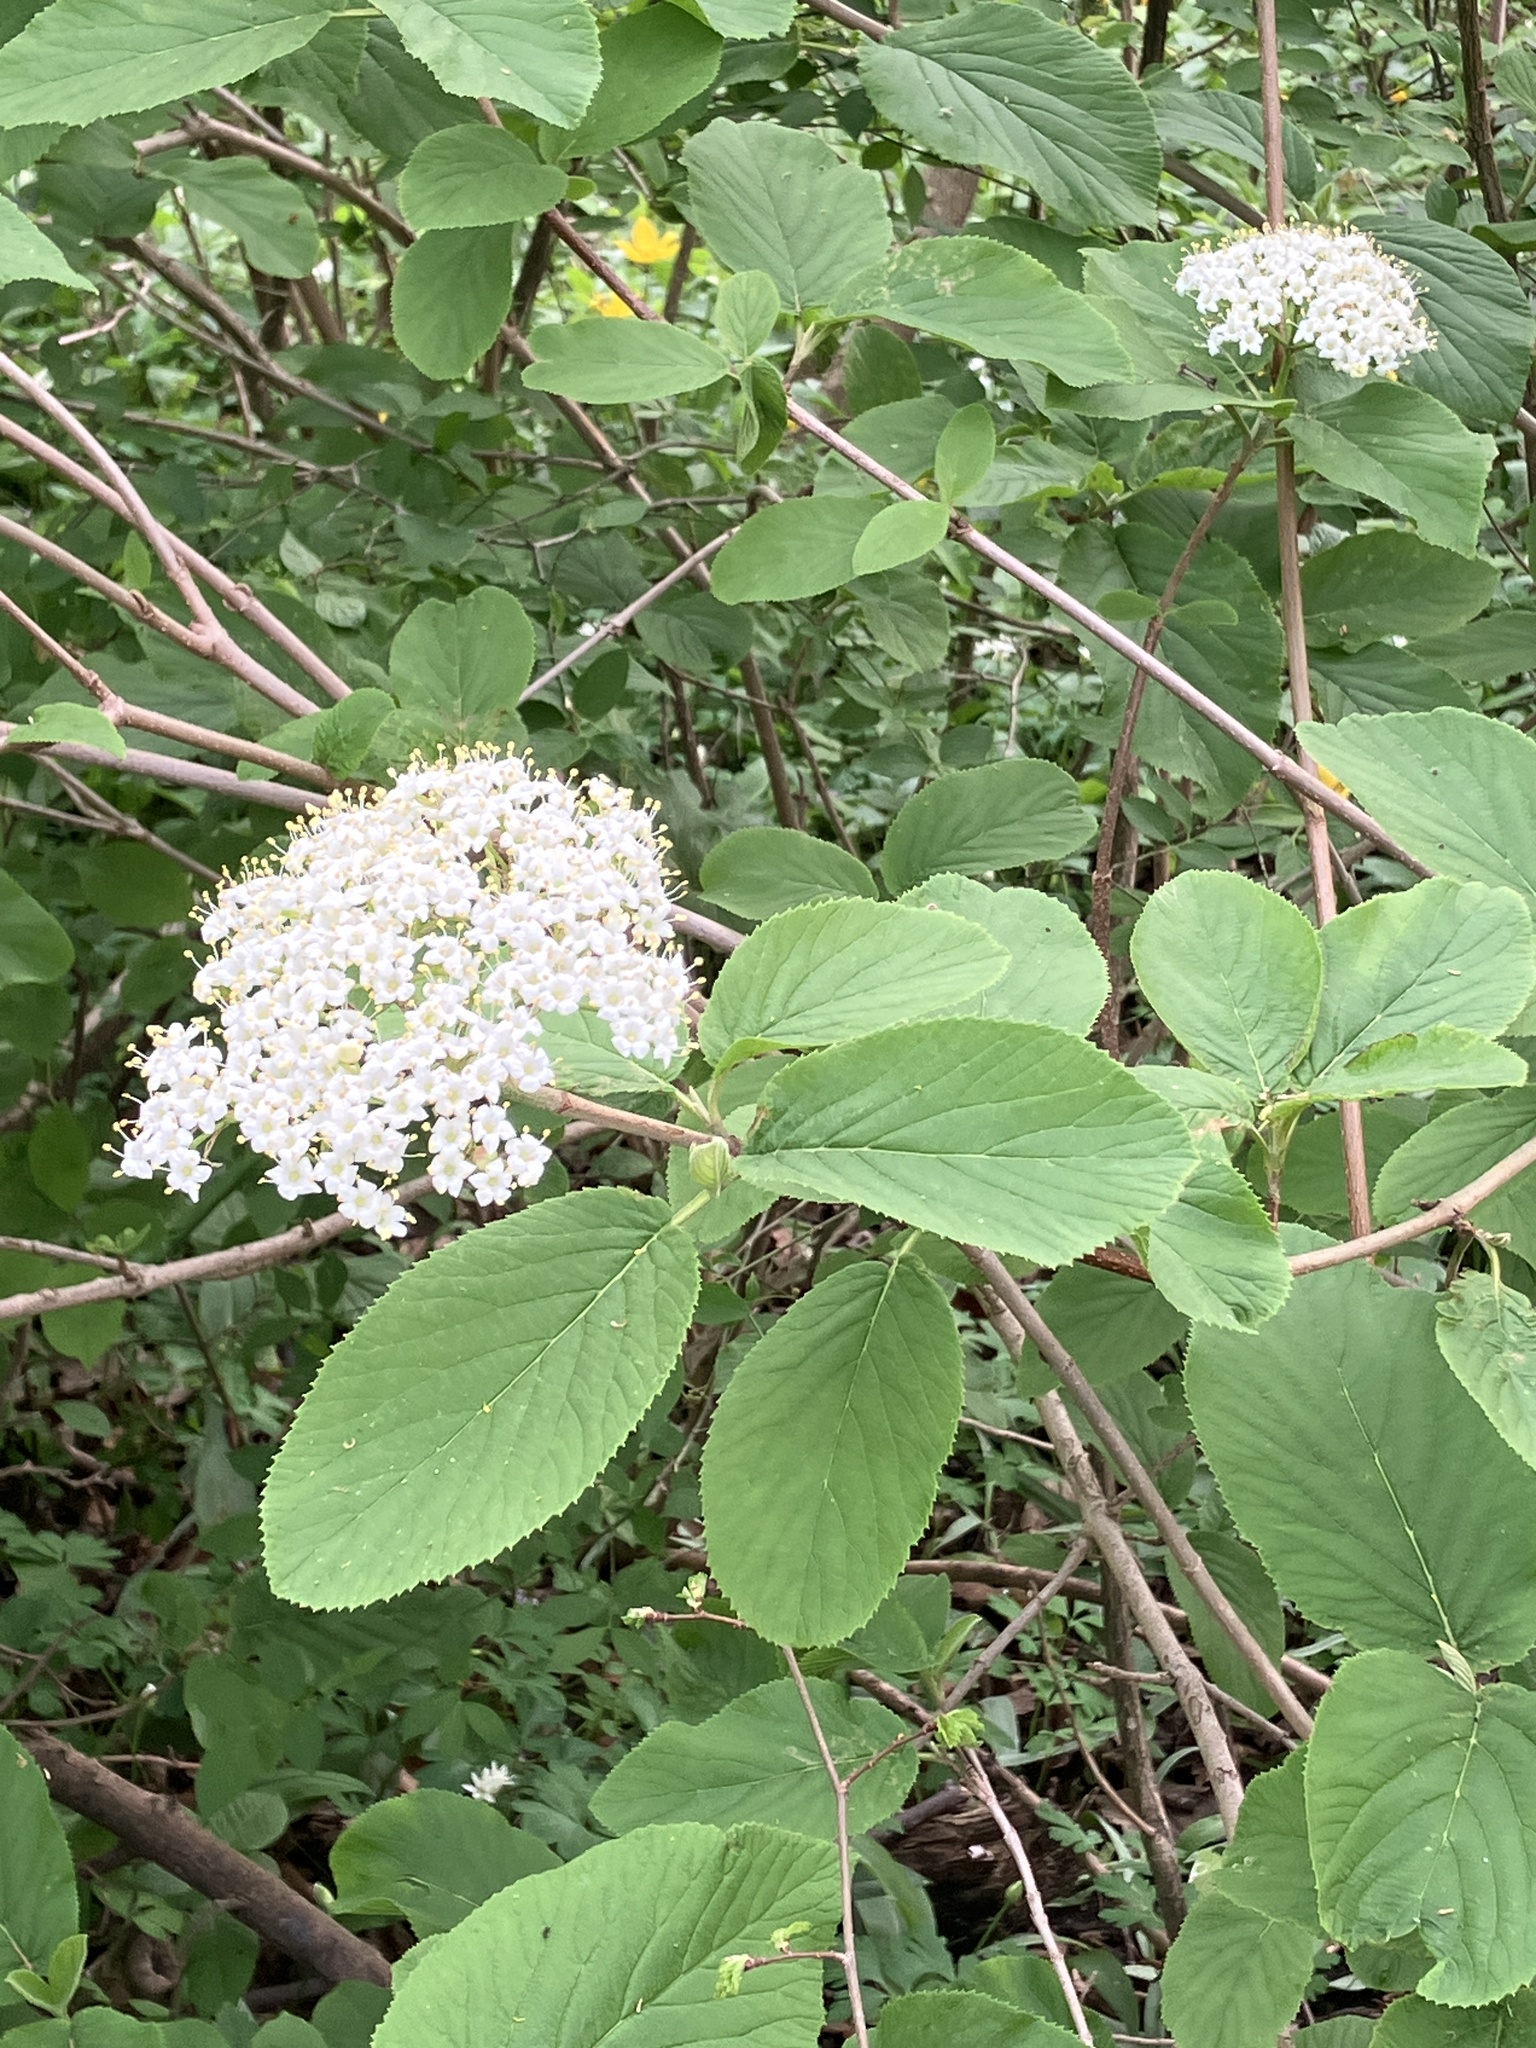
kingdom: Plantae
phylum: Tracheophyta
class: Magnoliopsida
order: Dipsacales
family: Viburnaceae
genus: Viburnum
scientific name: Viburnum lantana
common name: Wayfaring tree
